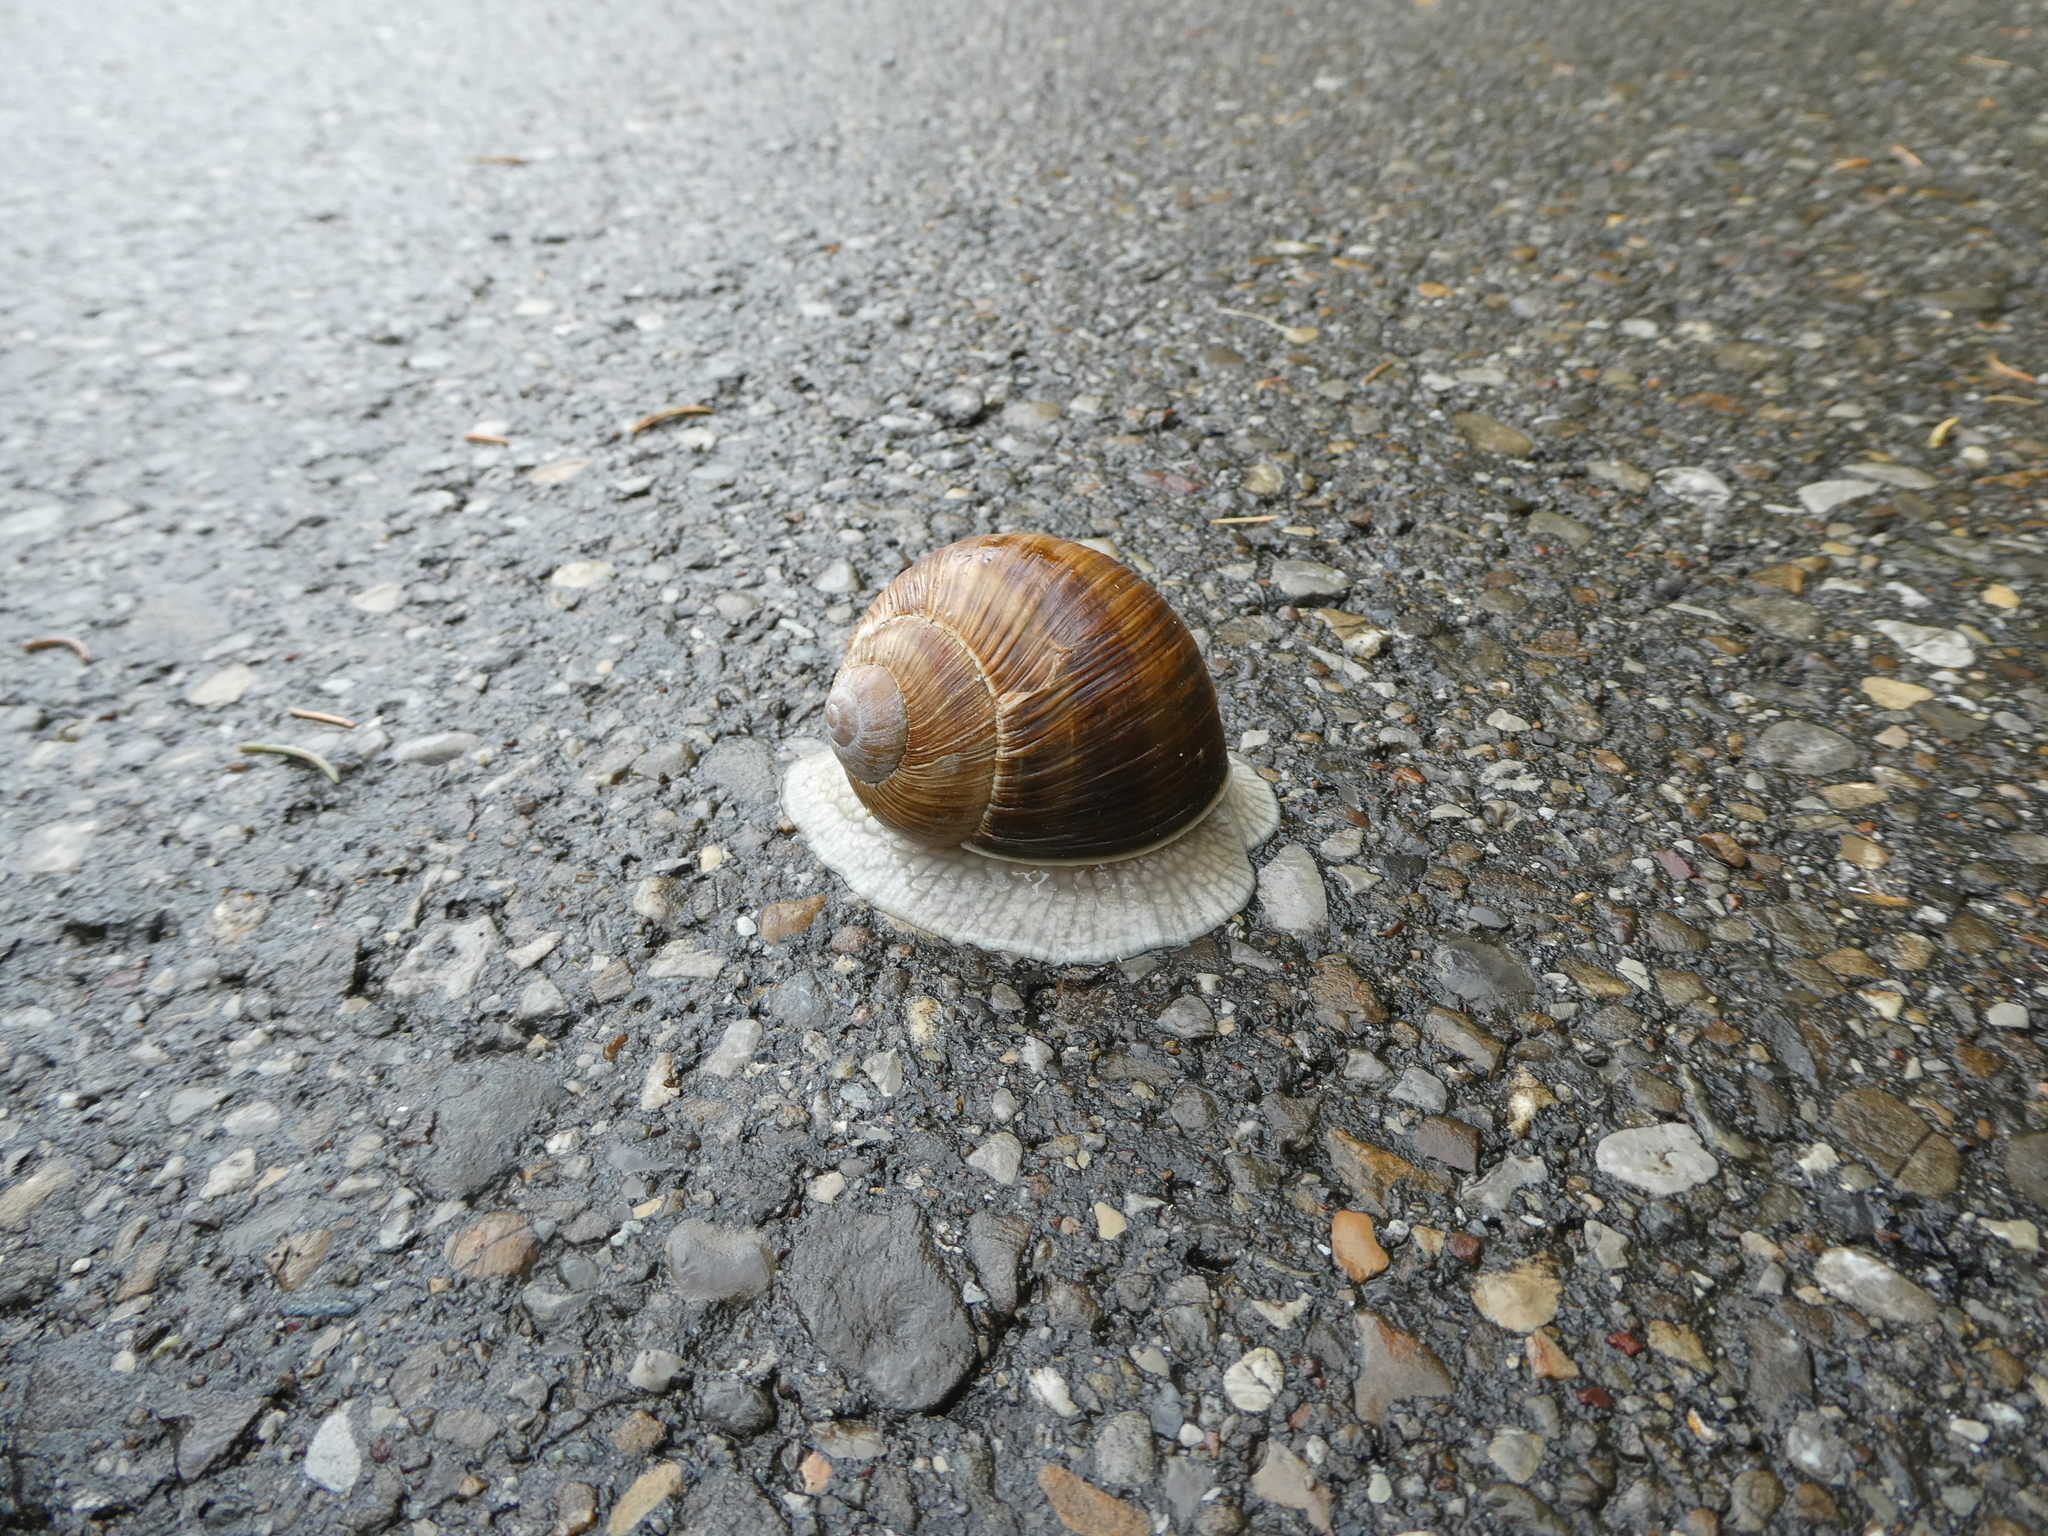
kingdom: Animalia
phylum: Mollusca
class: Gastropoda
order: Stylommatophora
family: Helicidae
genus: Helix
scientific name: Helix pomatia
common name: Roman snail
